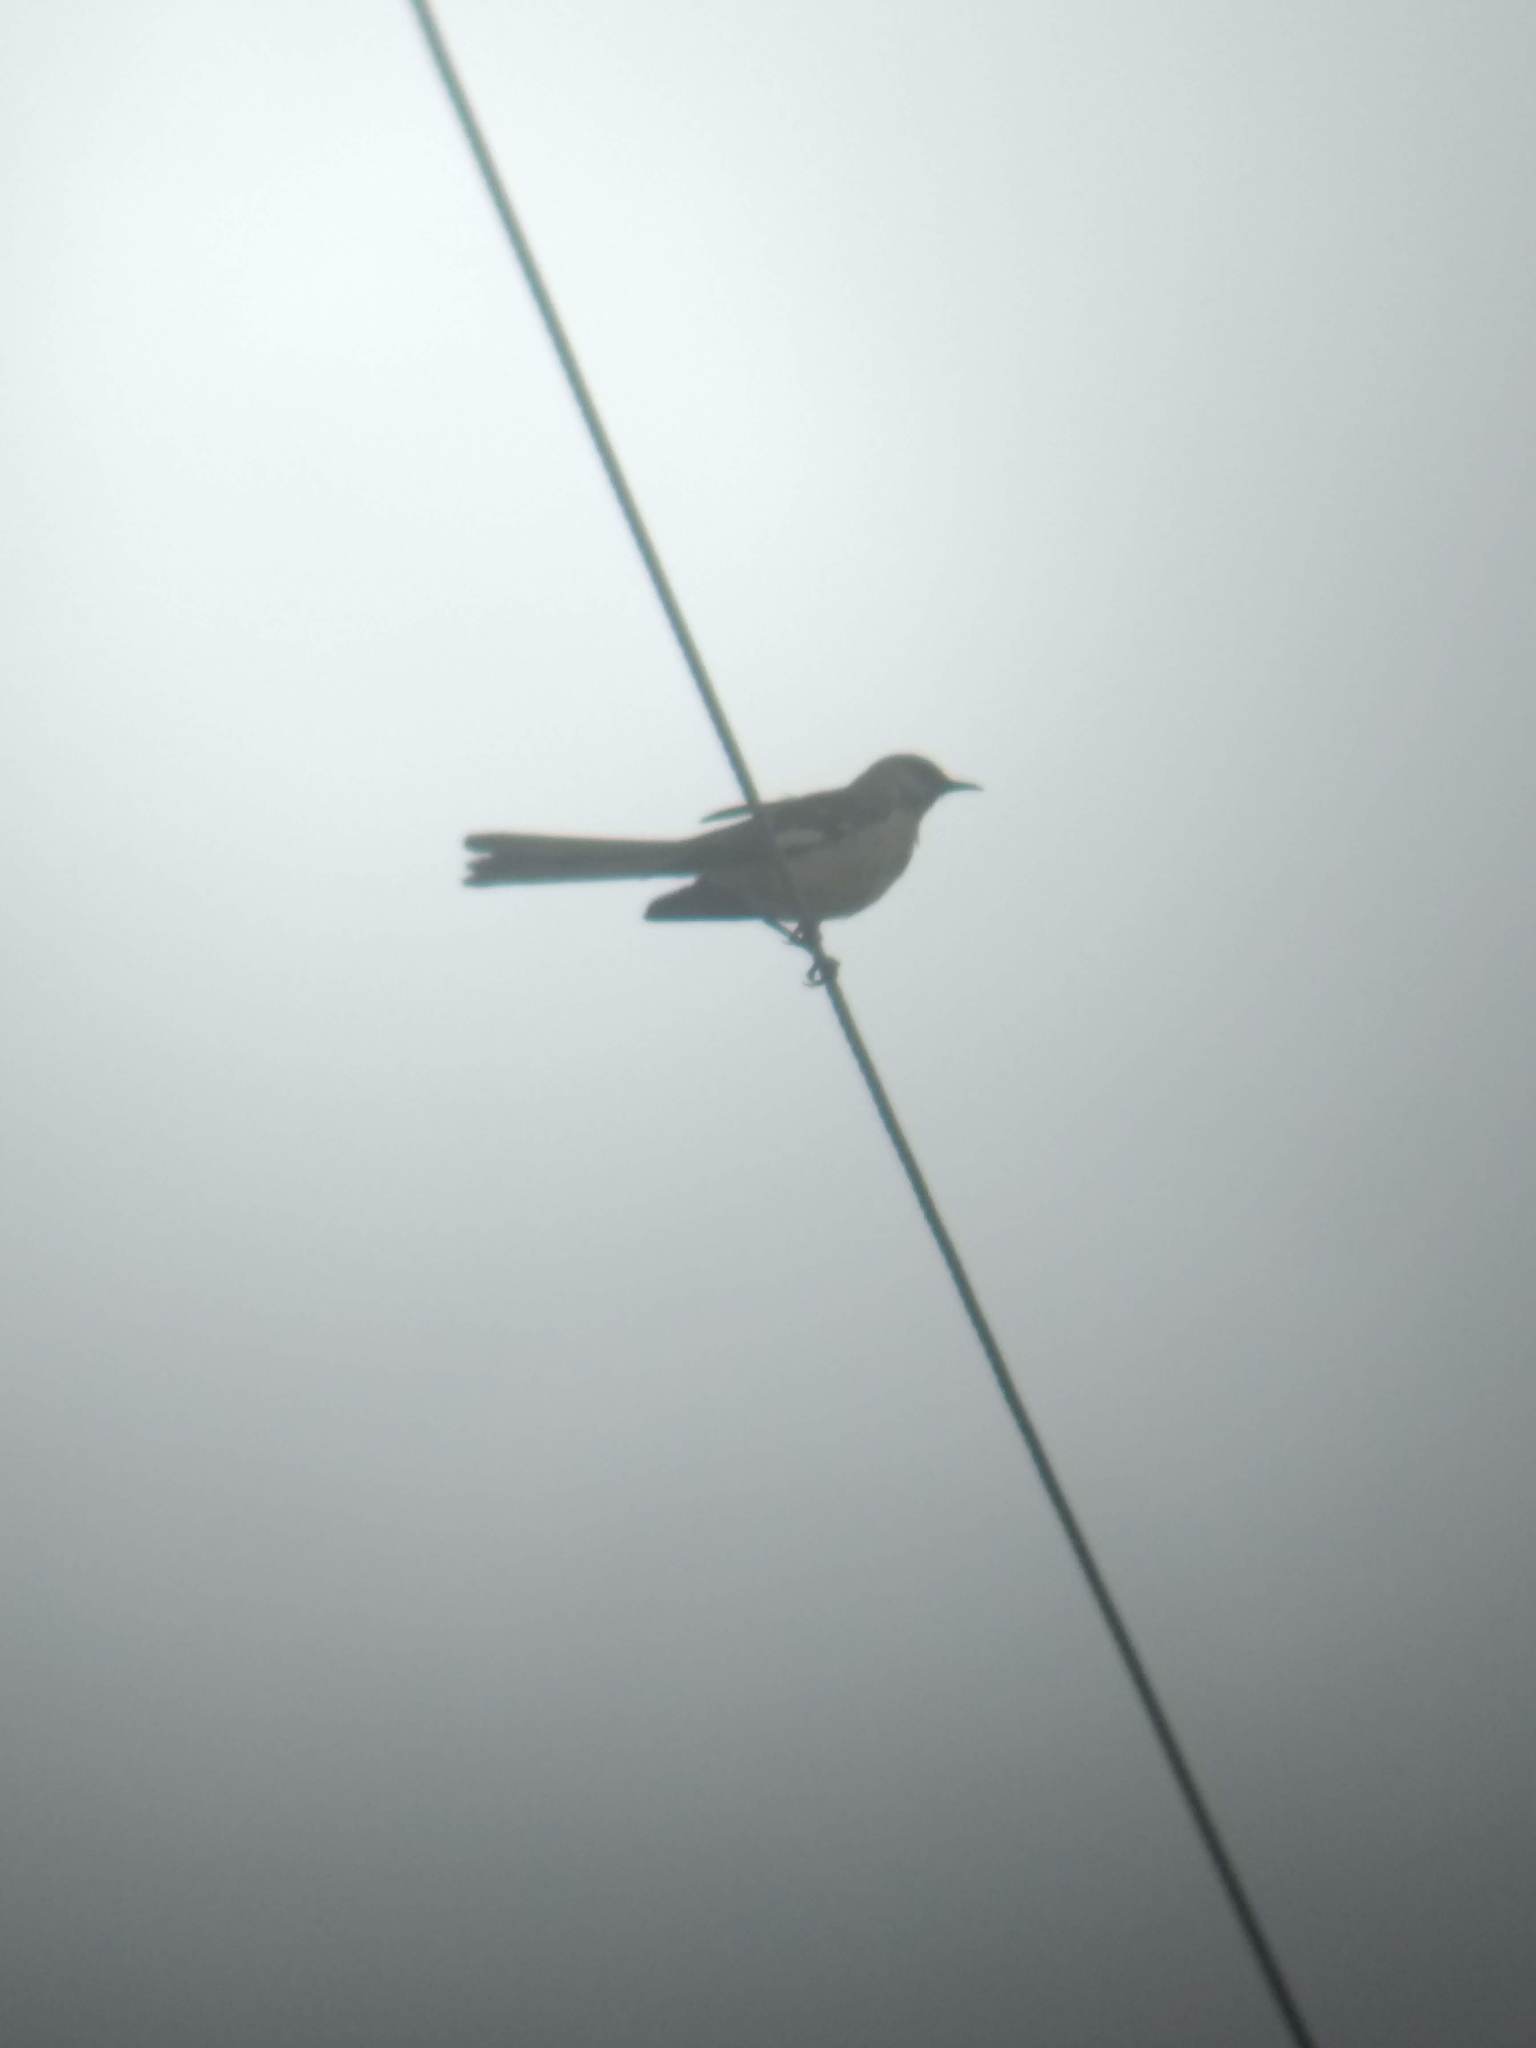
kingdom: Animalia
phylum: Chordata
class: Aves
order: Passeriformes
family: Mimidae
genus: Mimus
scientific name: Mimus polyglottos
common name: Northern mockingbird
